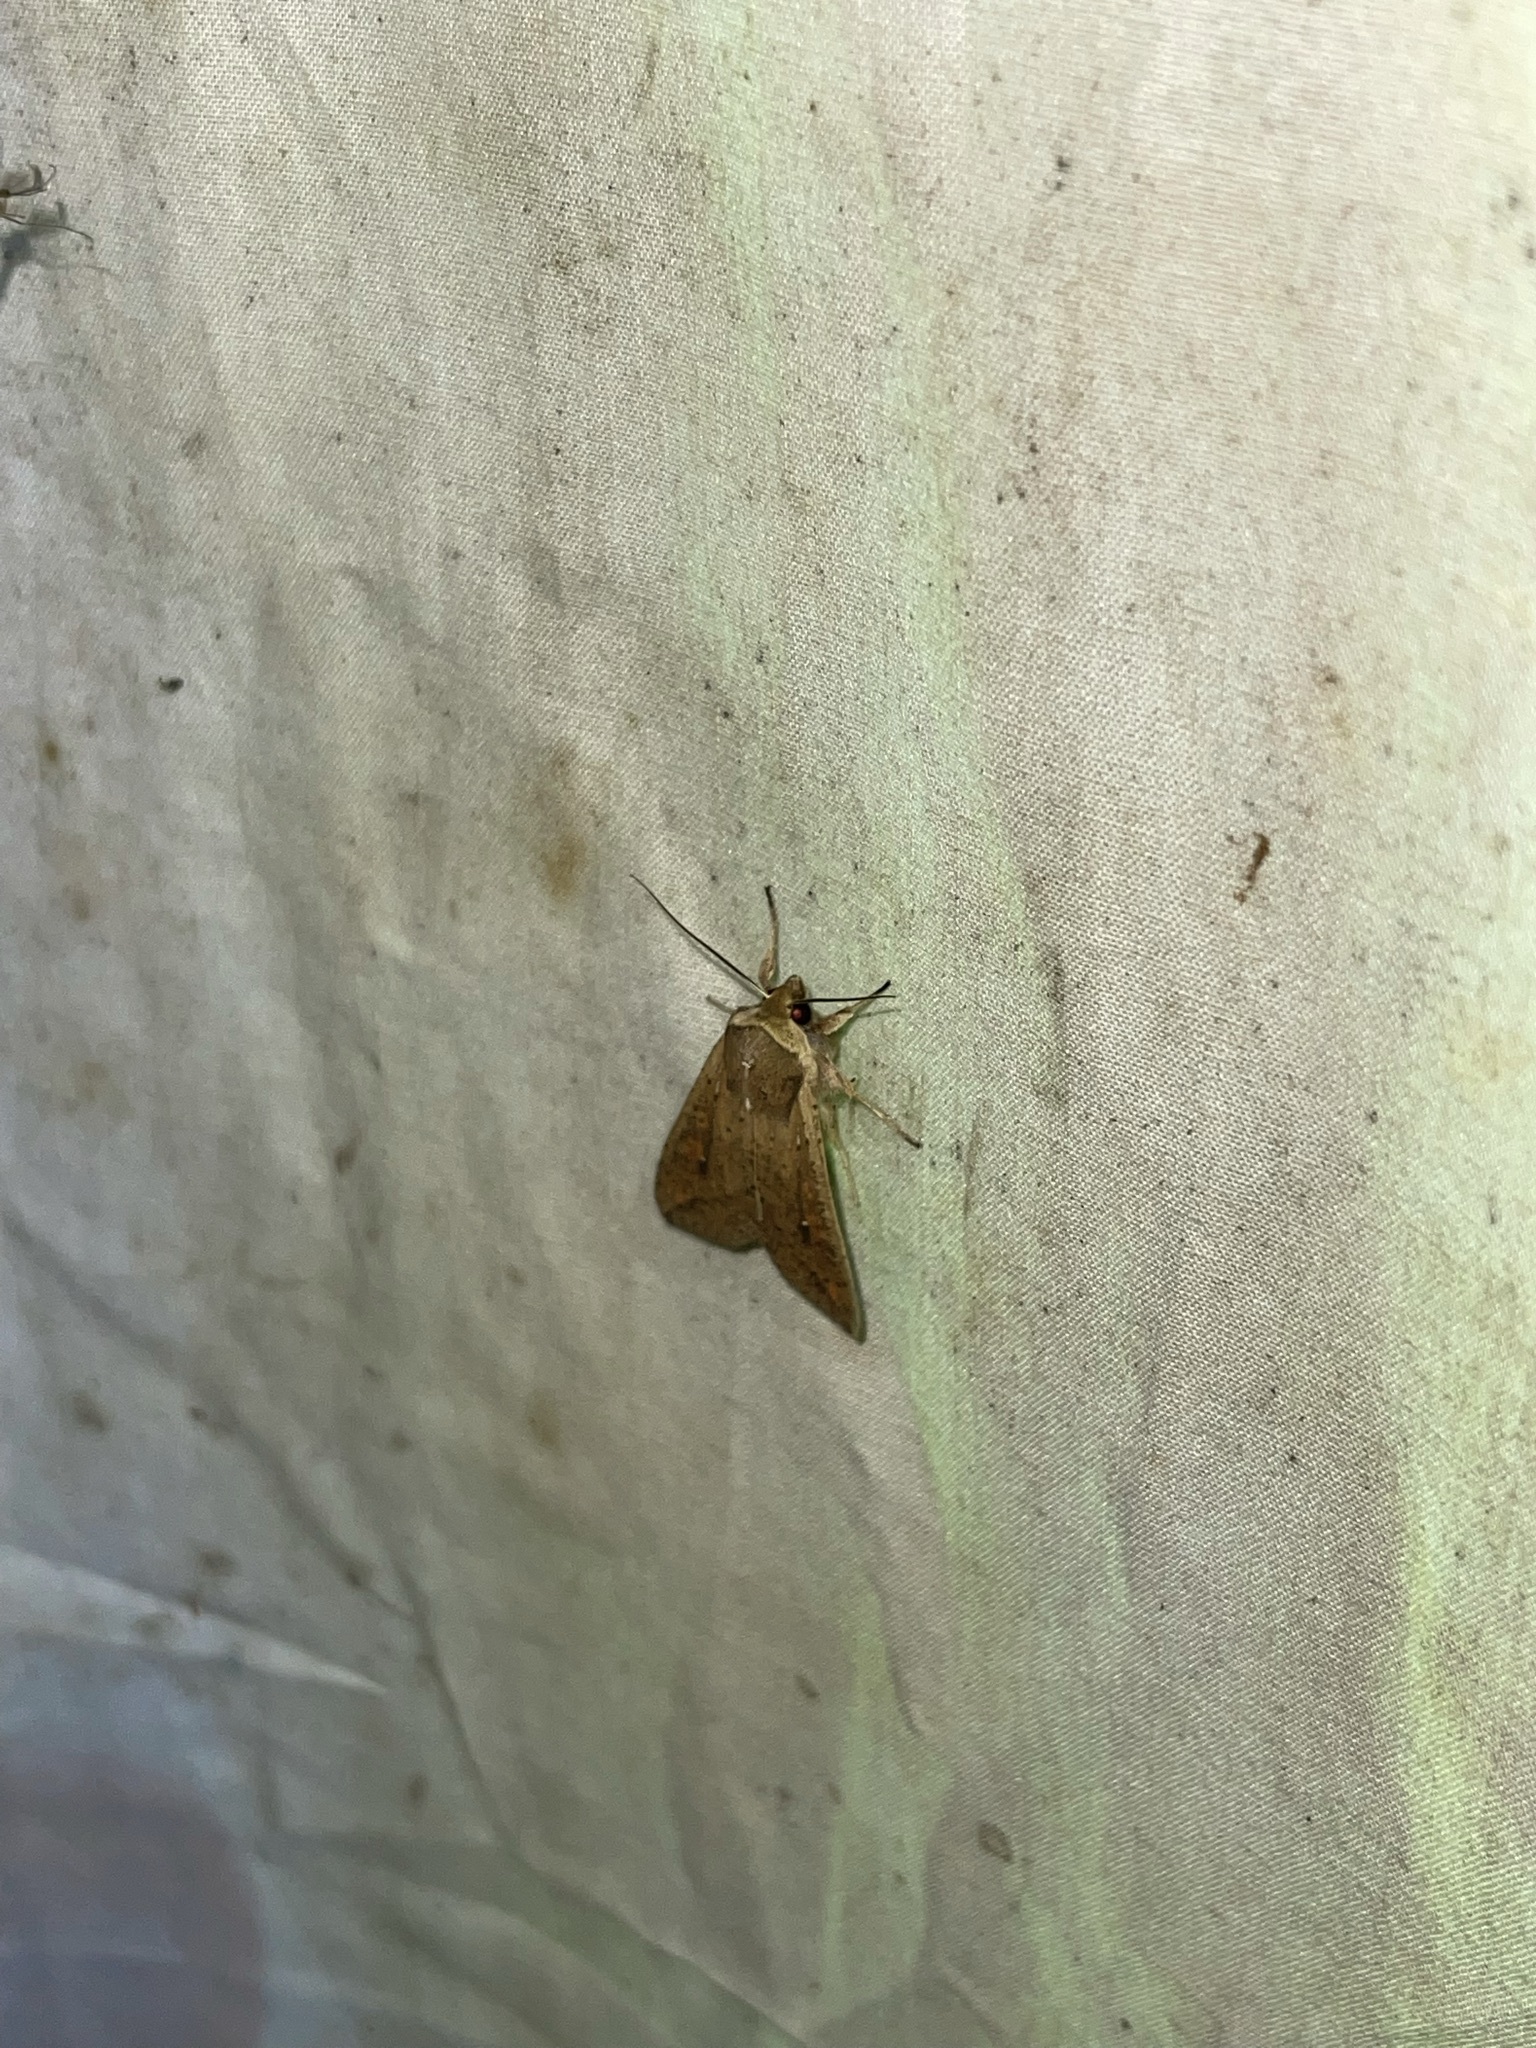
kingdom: Animalia
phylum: Arthropoda
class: Insecta
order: Lepidoptera
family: Noctuidae
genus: Mythimna
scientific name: Mythimna unipuncta
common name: White-speck
